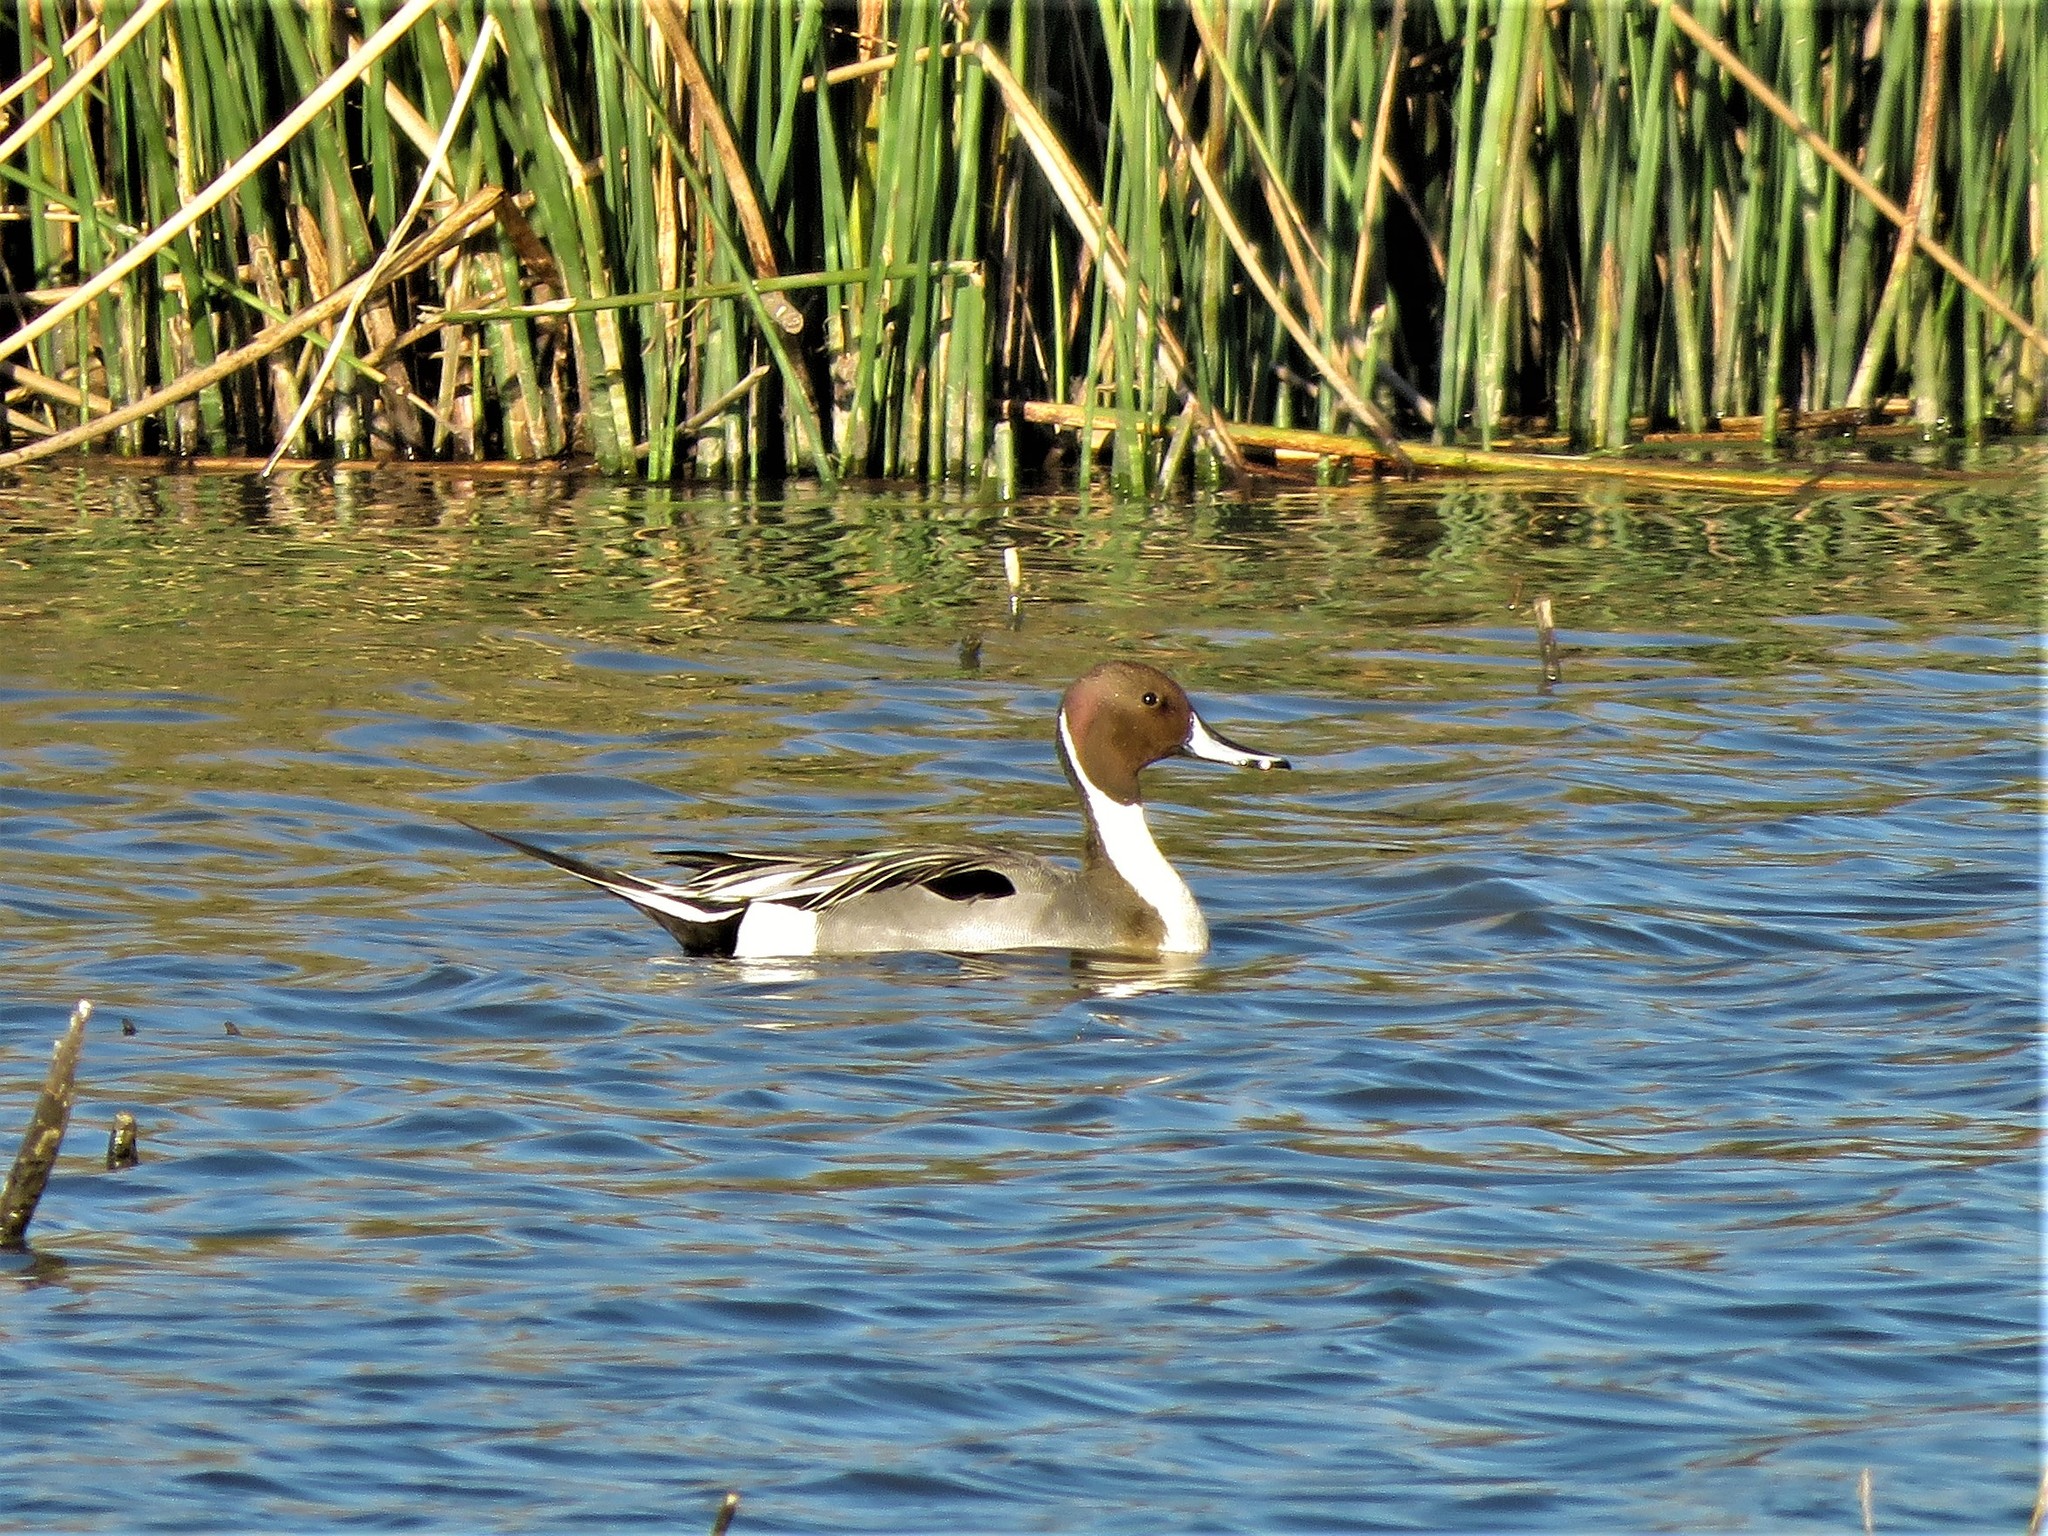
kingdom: Animalia
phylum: Chordata
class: Aves
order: Anseriformes
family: Anatidae
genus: Anas
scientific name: Anas acuta
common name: Northern pintail
